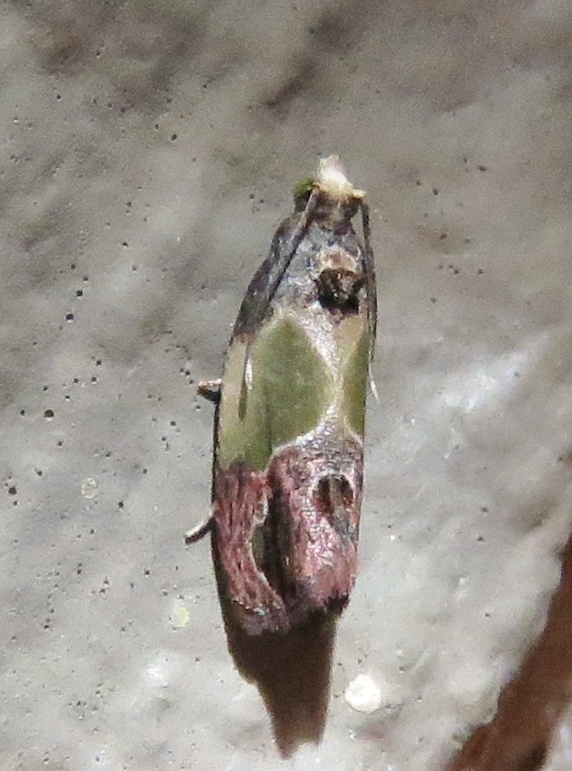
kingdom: Animalia
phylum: Arthropoda
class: Insecta
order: Lepidoptera
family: Tortricidae
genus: Eumarozia
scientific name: Eumarozia malachitana
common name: Sculptured moth
